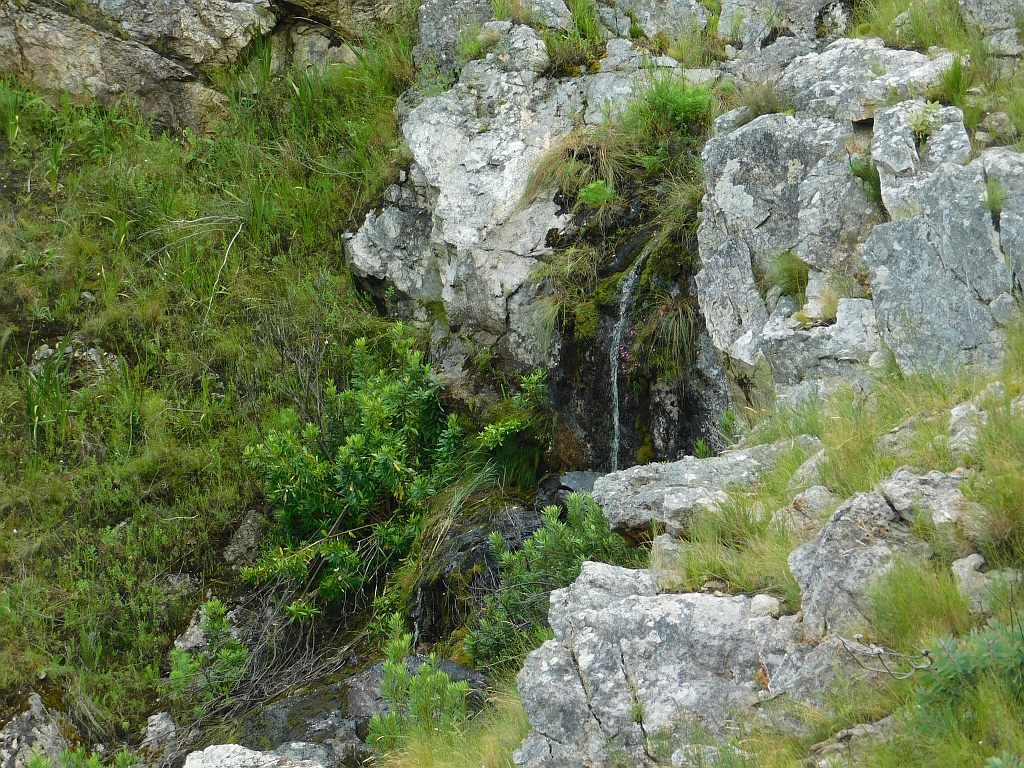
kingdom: Plantae
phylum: Tracheophyta
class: Liliopsida
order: Asparagales
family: Iridaceae
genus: Geissorhiza
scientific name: Geissorhiza callista
